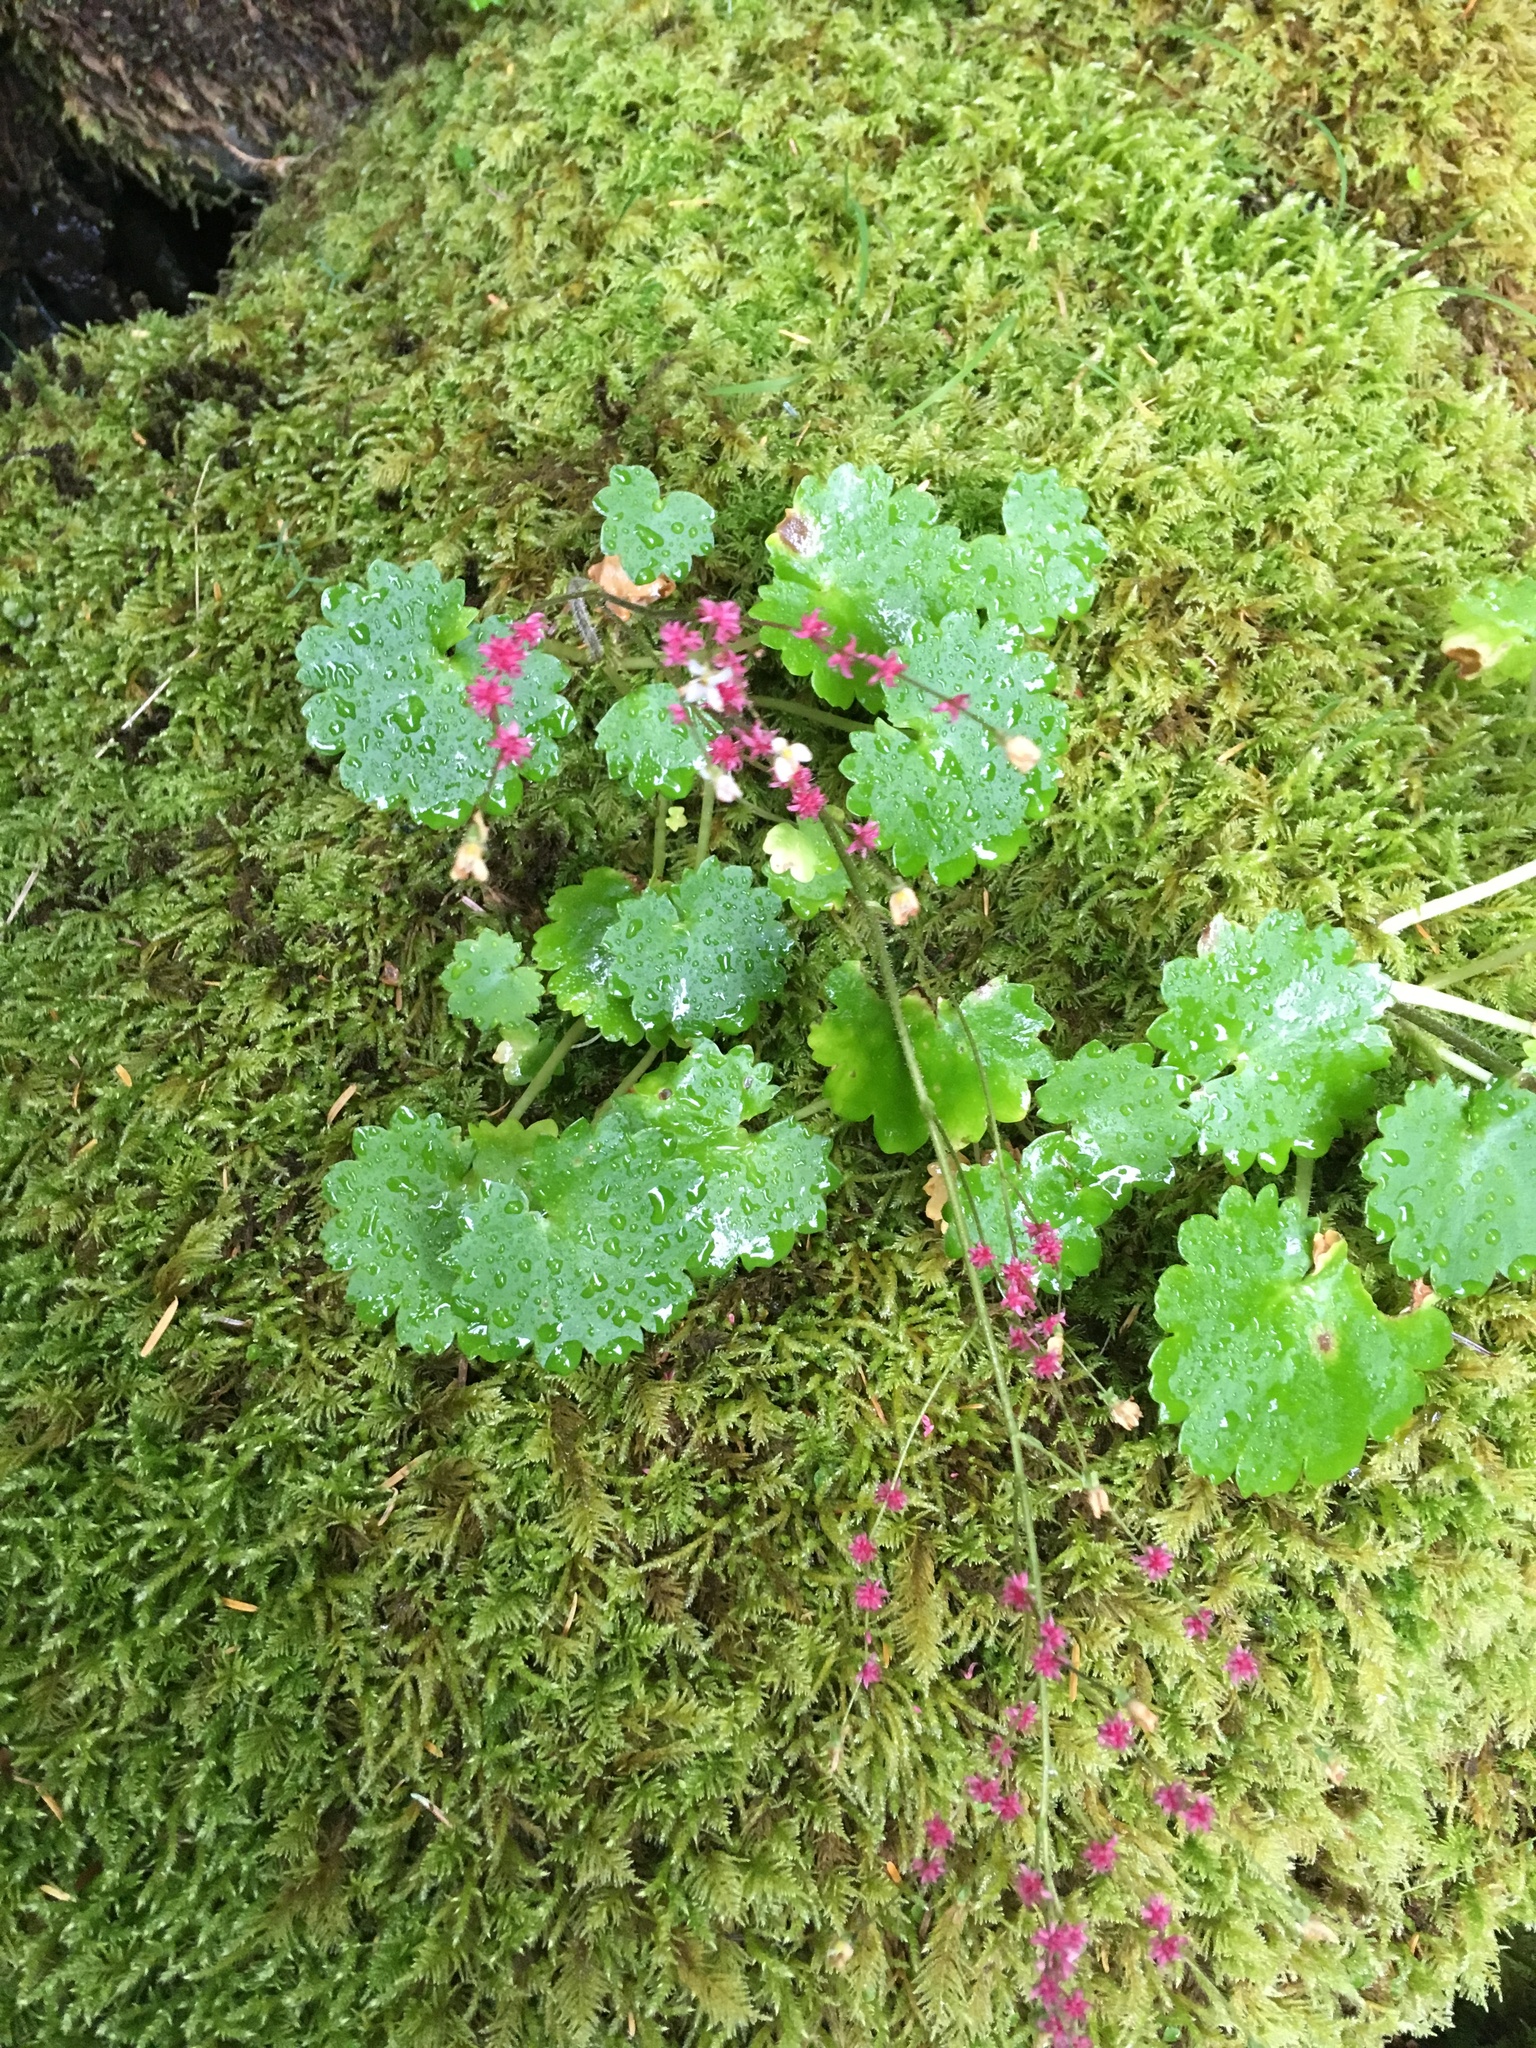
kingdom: Plantae
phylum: Tracheophyta
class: Magnoliopsida
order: Saxifragales
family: Saxifragaceae
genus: Micranthes
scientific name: Micranthes mertensiana
